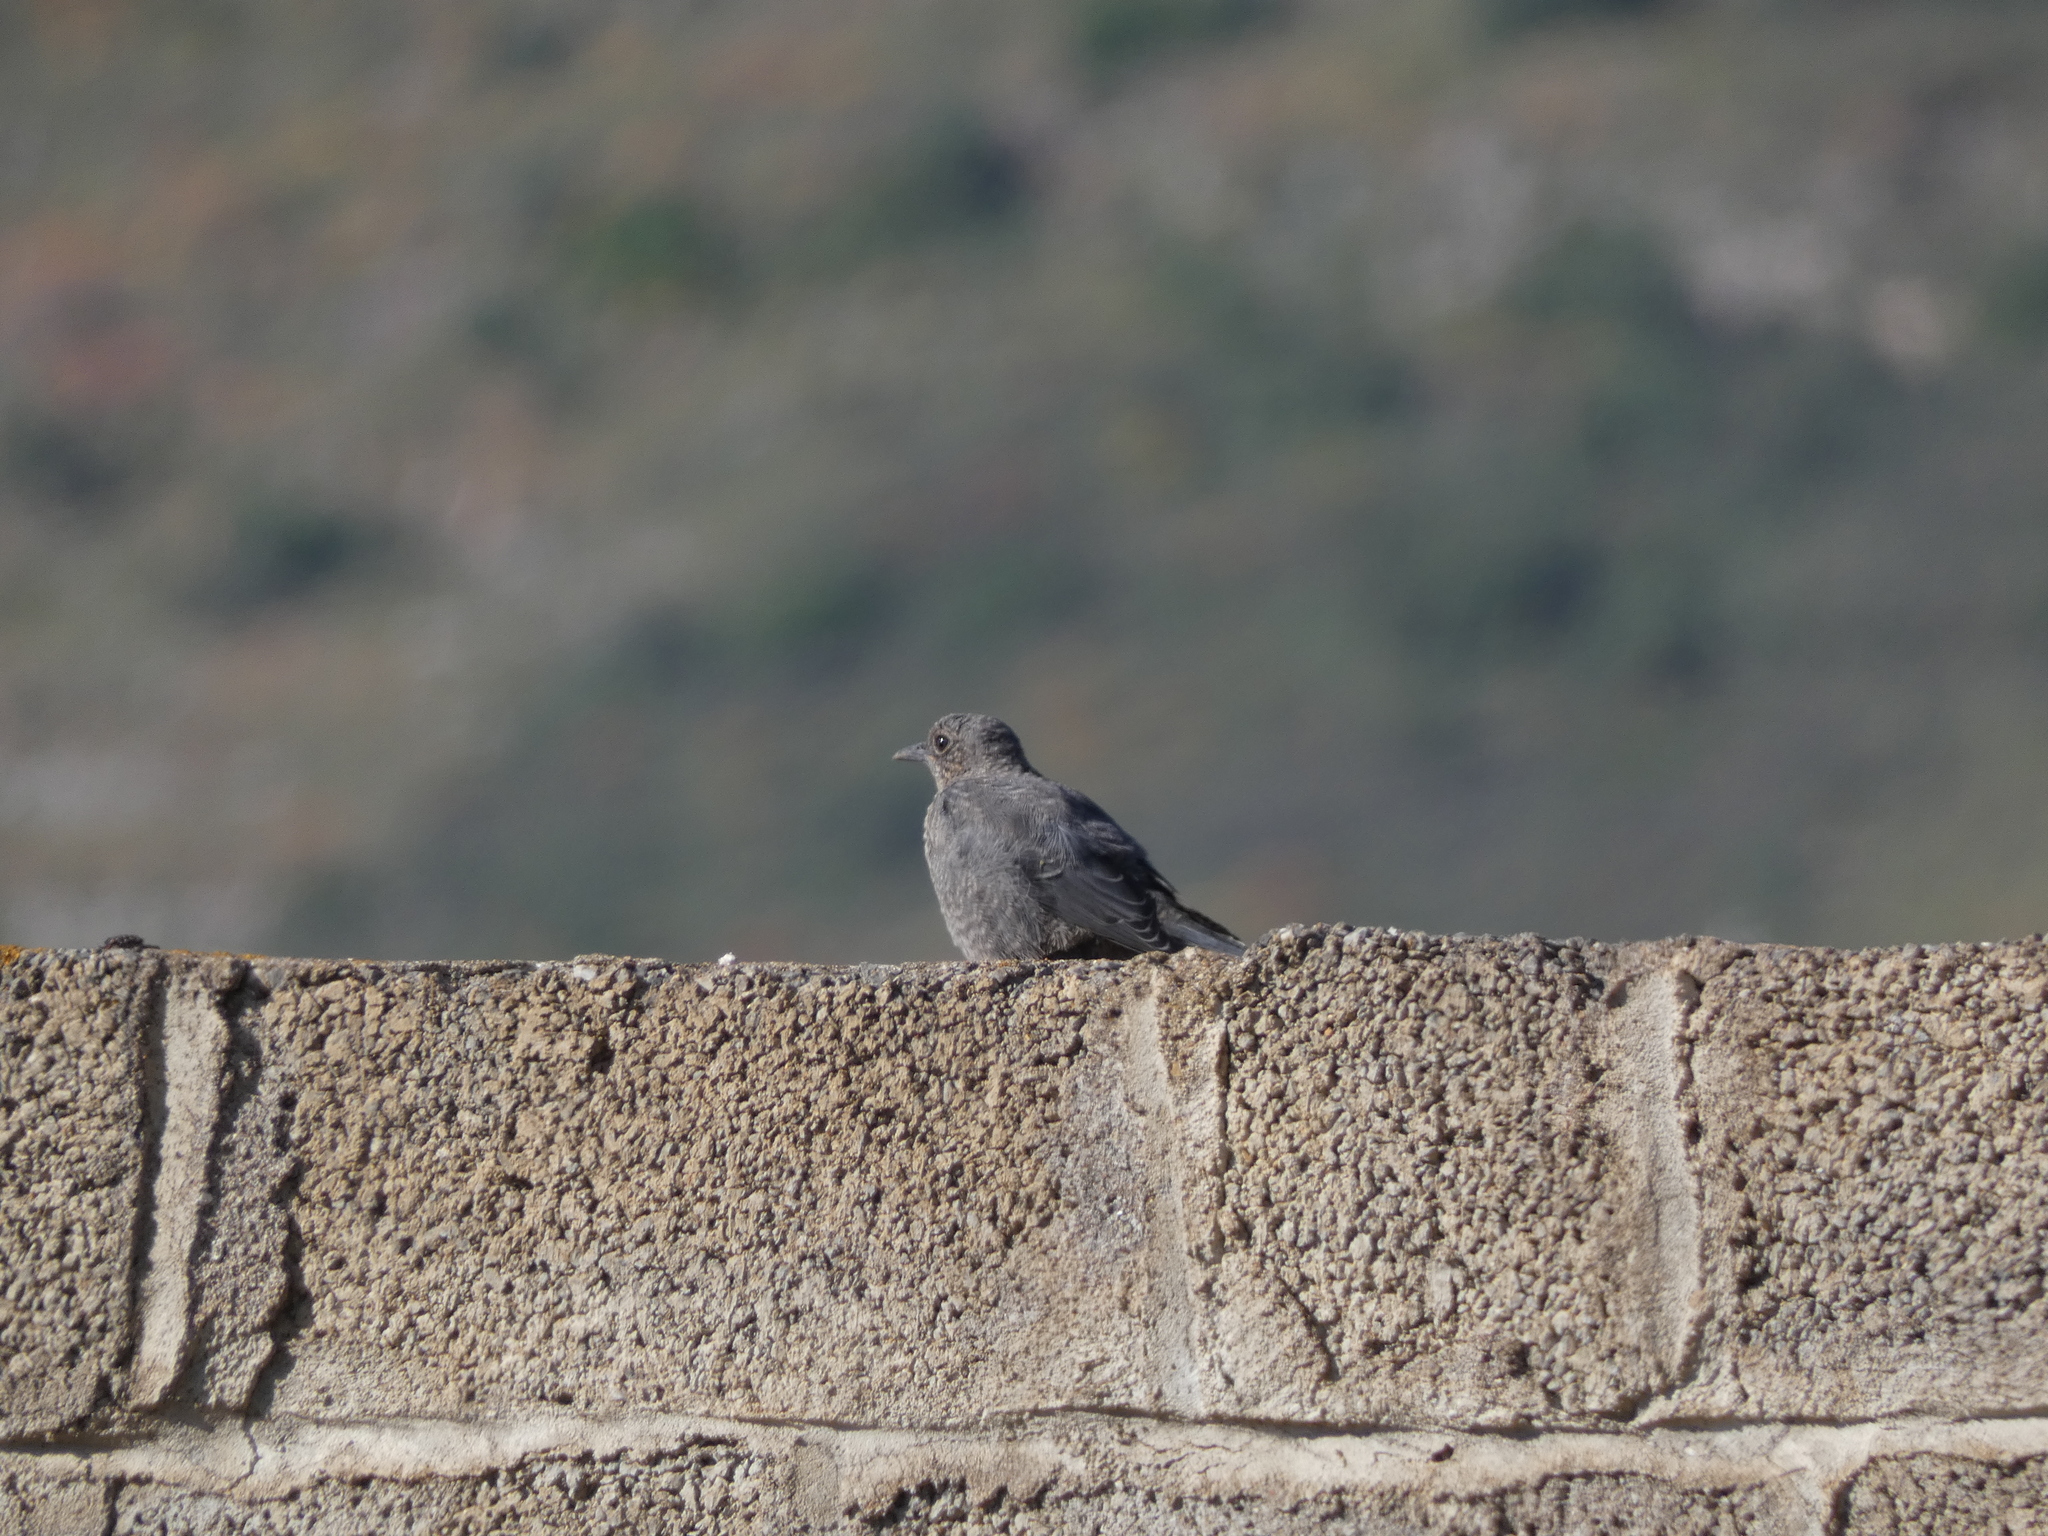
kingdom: Animalia
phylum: Chordata
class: Aves
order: Passeriformes
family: Muscicapidae
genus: Monticola
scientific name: Monticola solitarius
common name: Blue rock thrush
